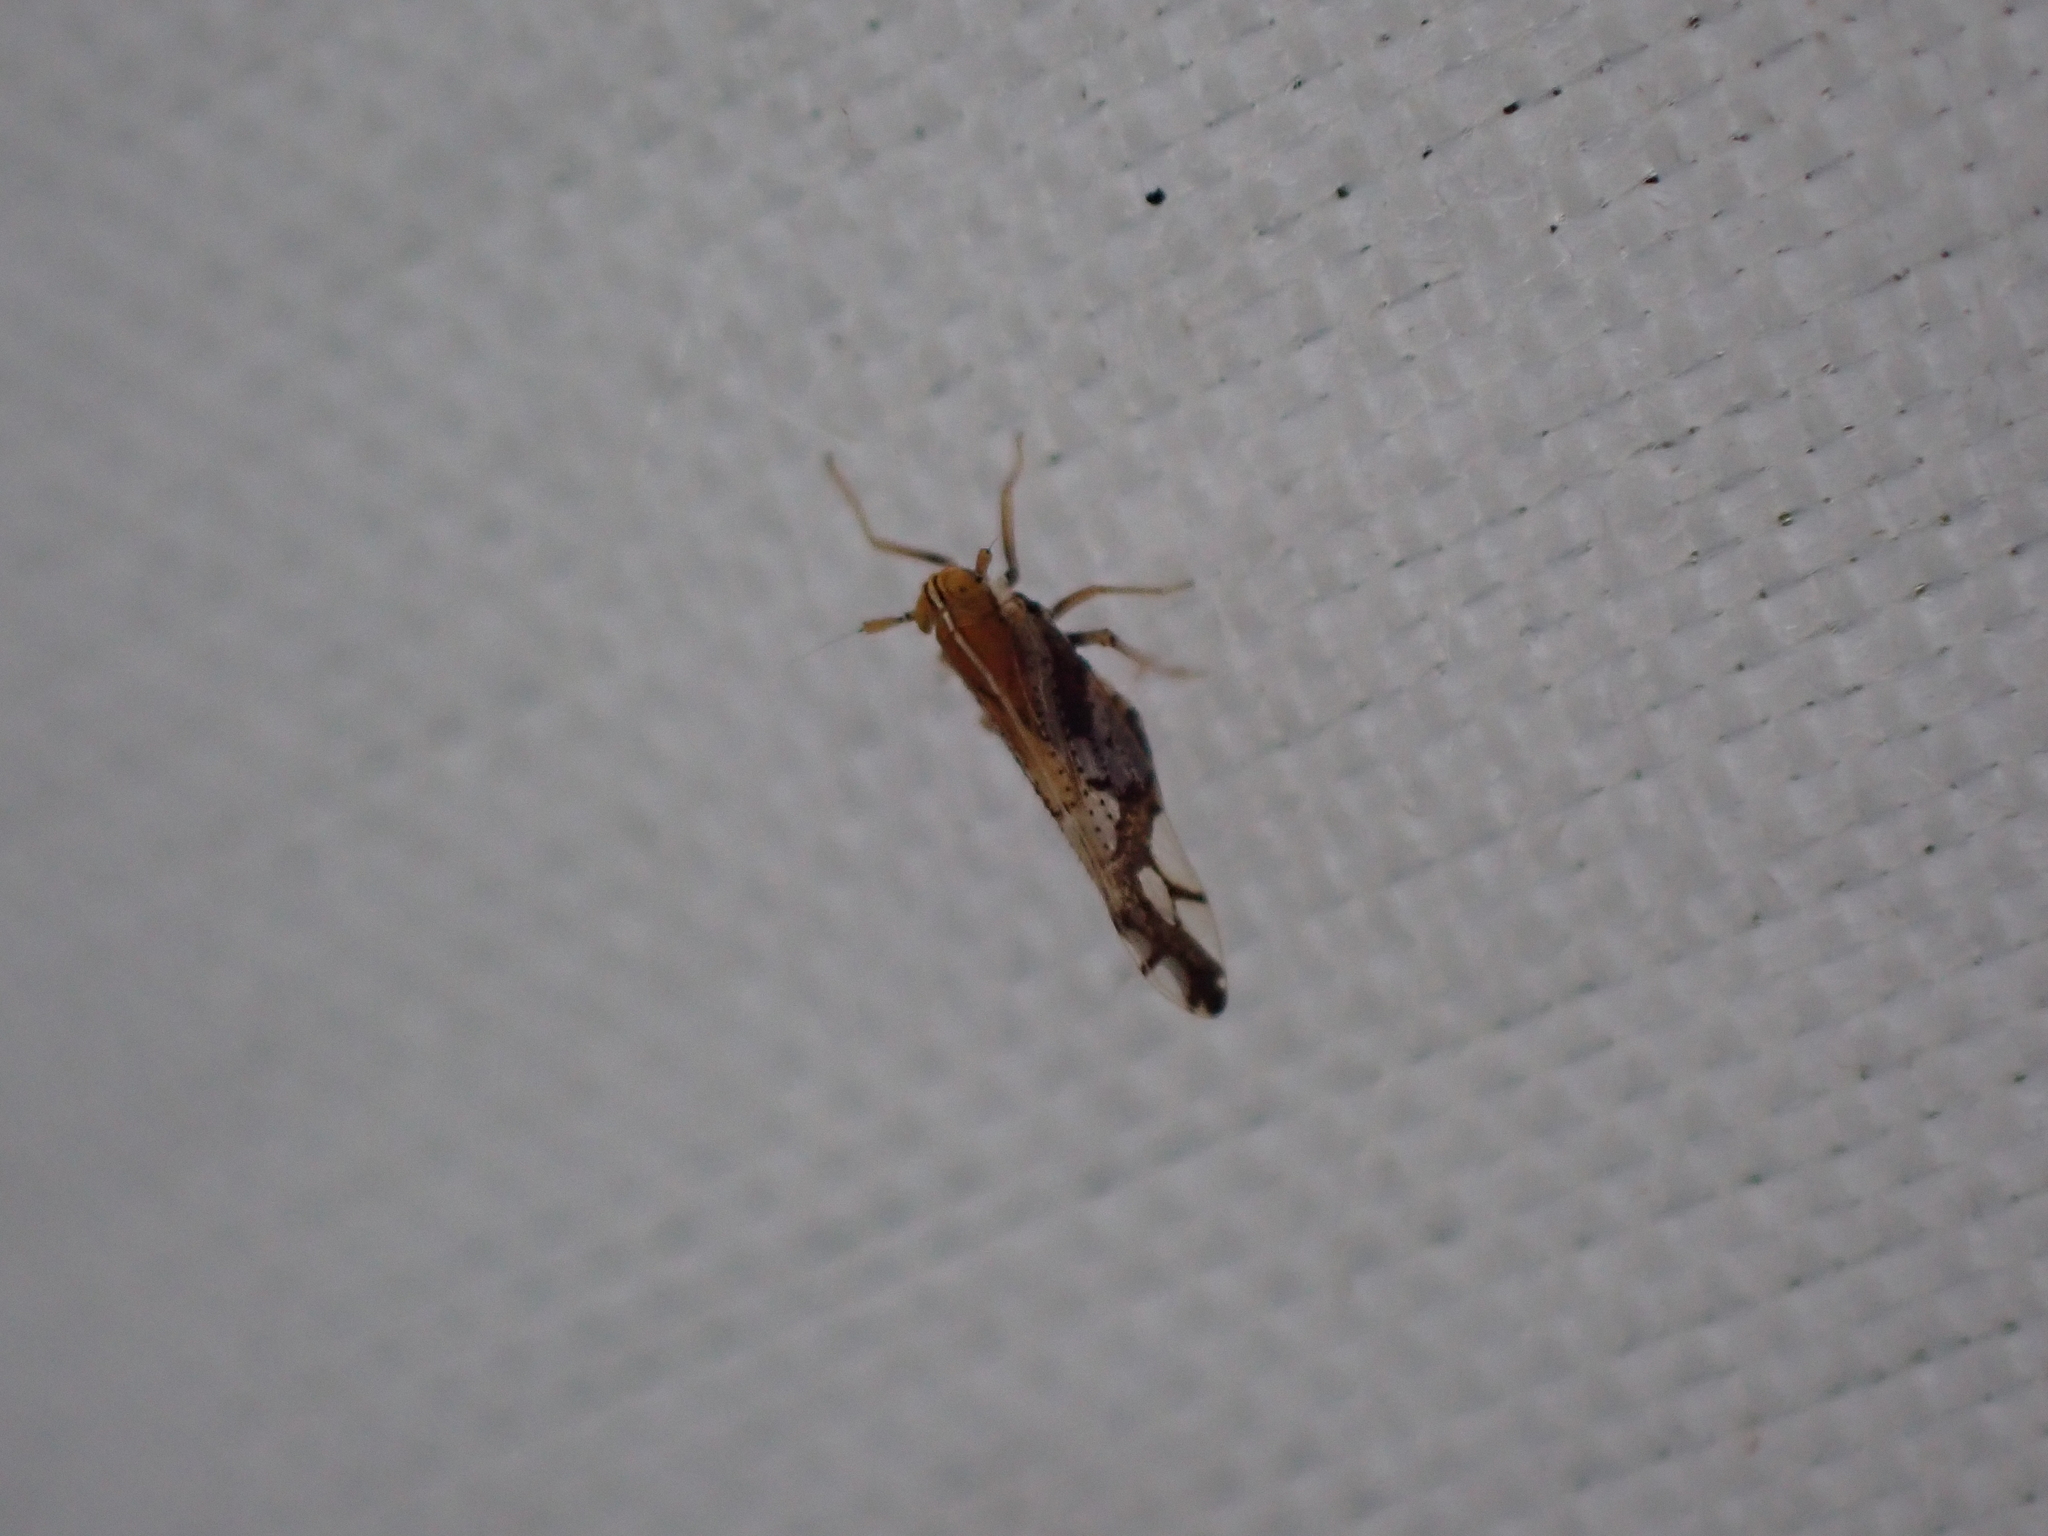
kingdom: Animalia
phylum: Arthropoda
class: Insecta
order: Hemiptera
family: Delphacidae
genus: Liburniella
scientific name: Liburniella ornata
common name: Ornate planthopper
